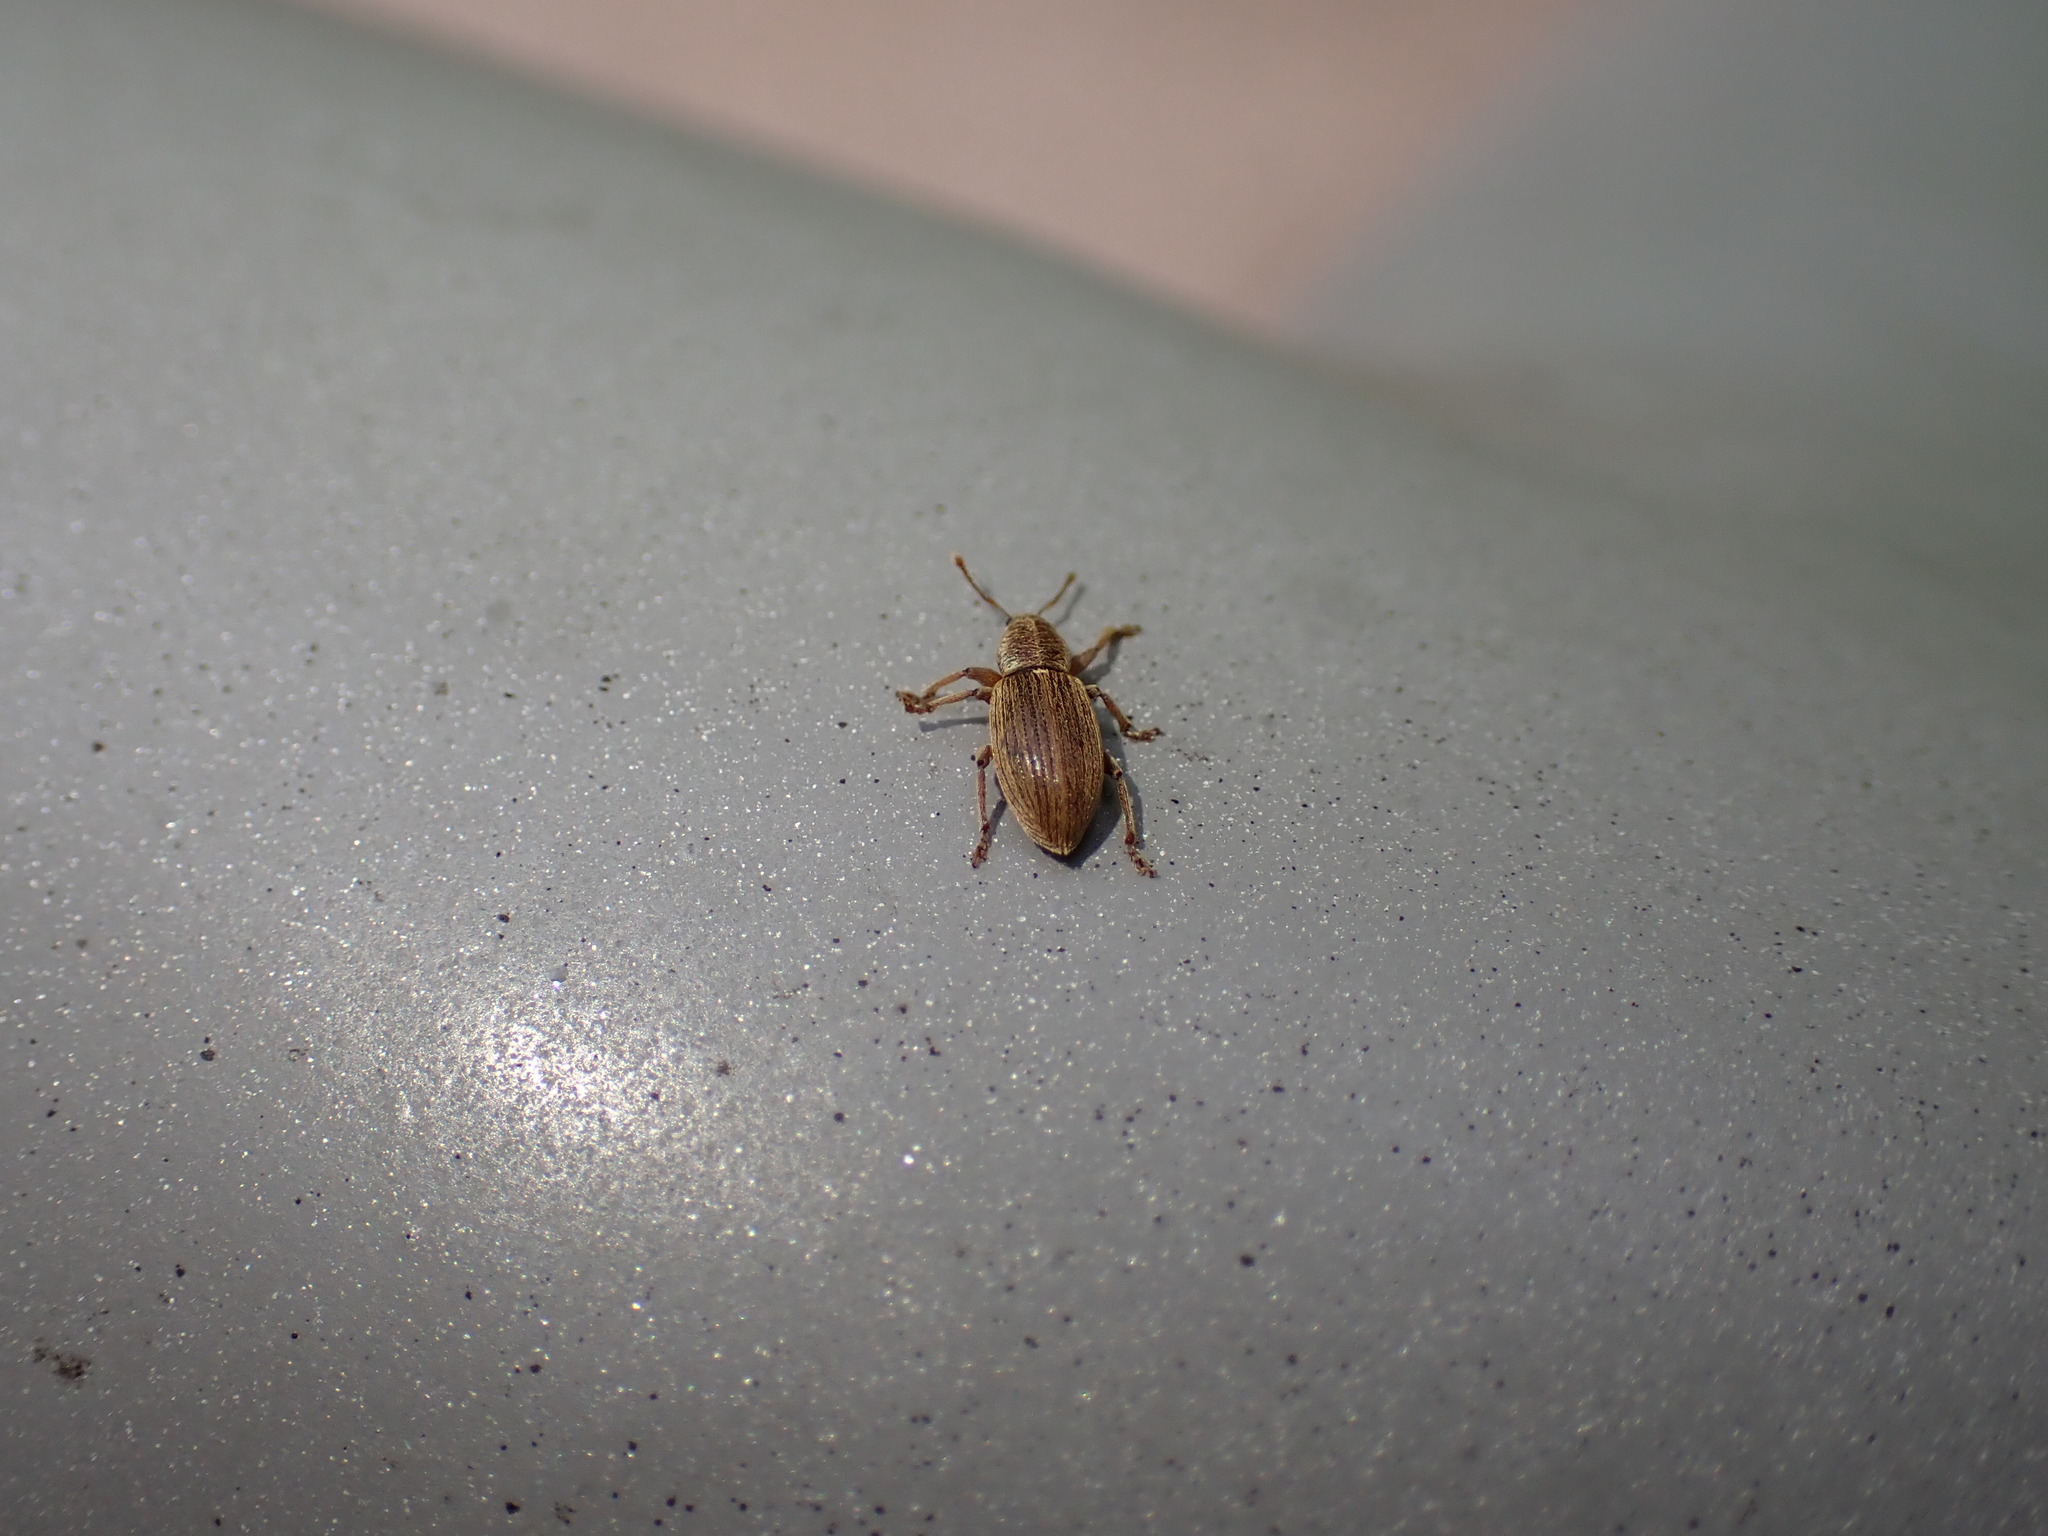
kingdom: Animalia
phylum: Arthropoda
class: Insecta
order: Coleoptera
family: Curculionidae
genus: Polydrusus
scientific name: Polydrusus marginatus
